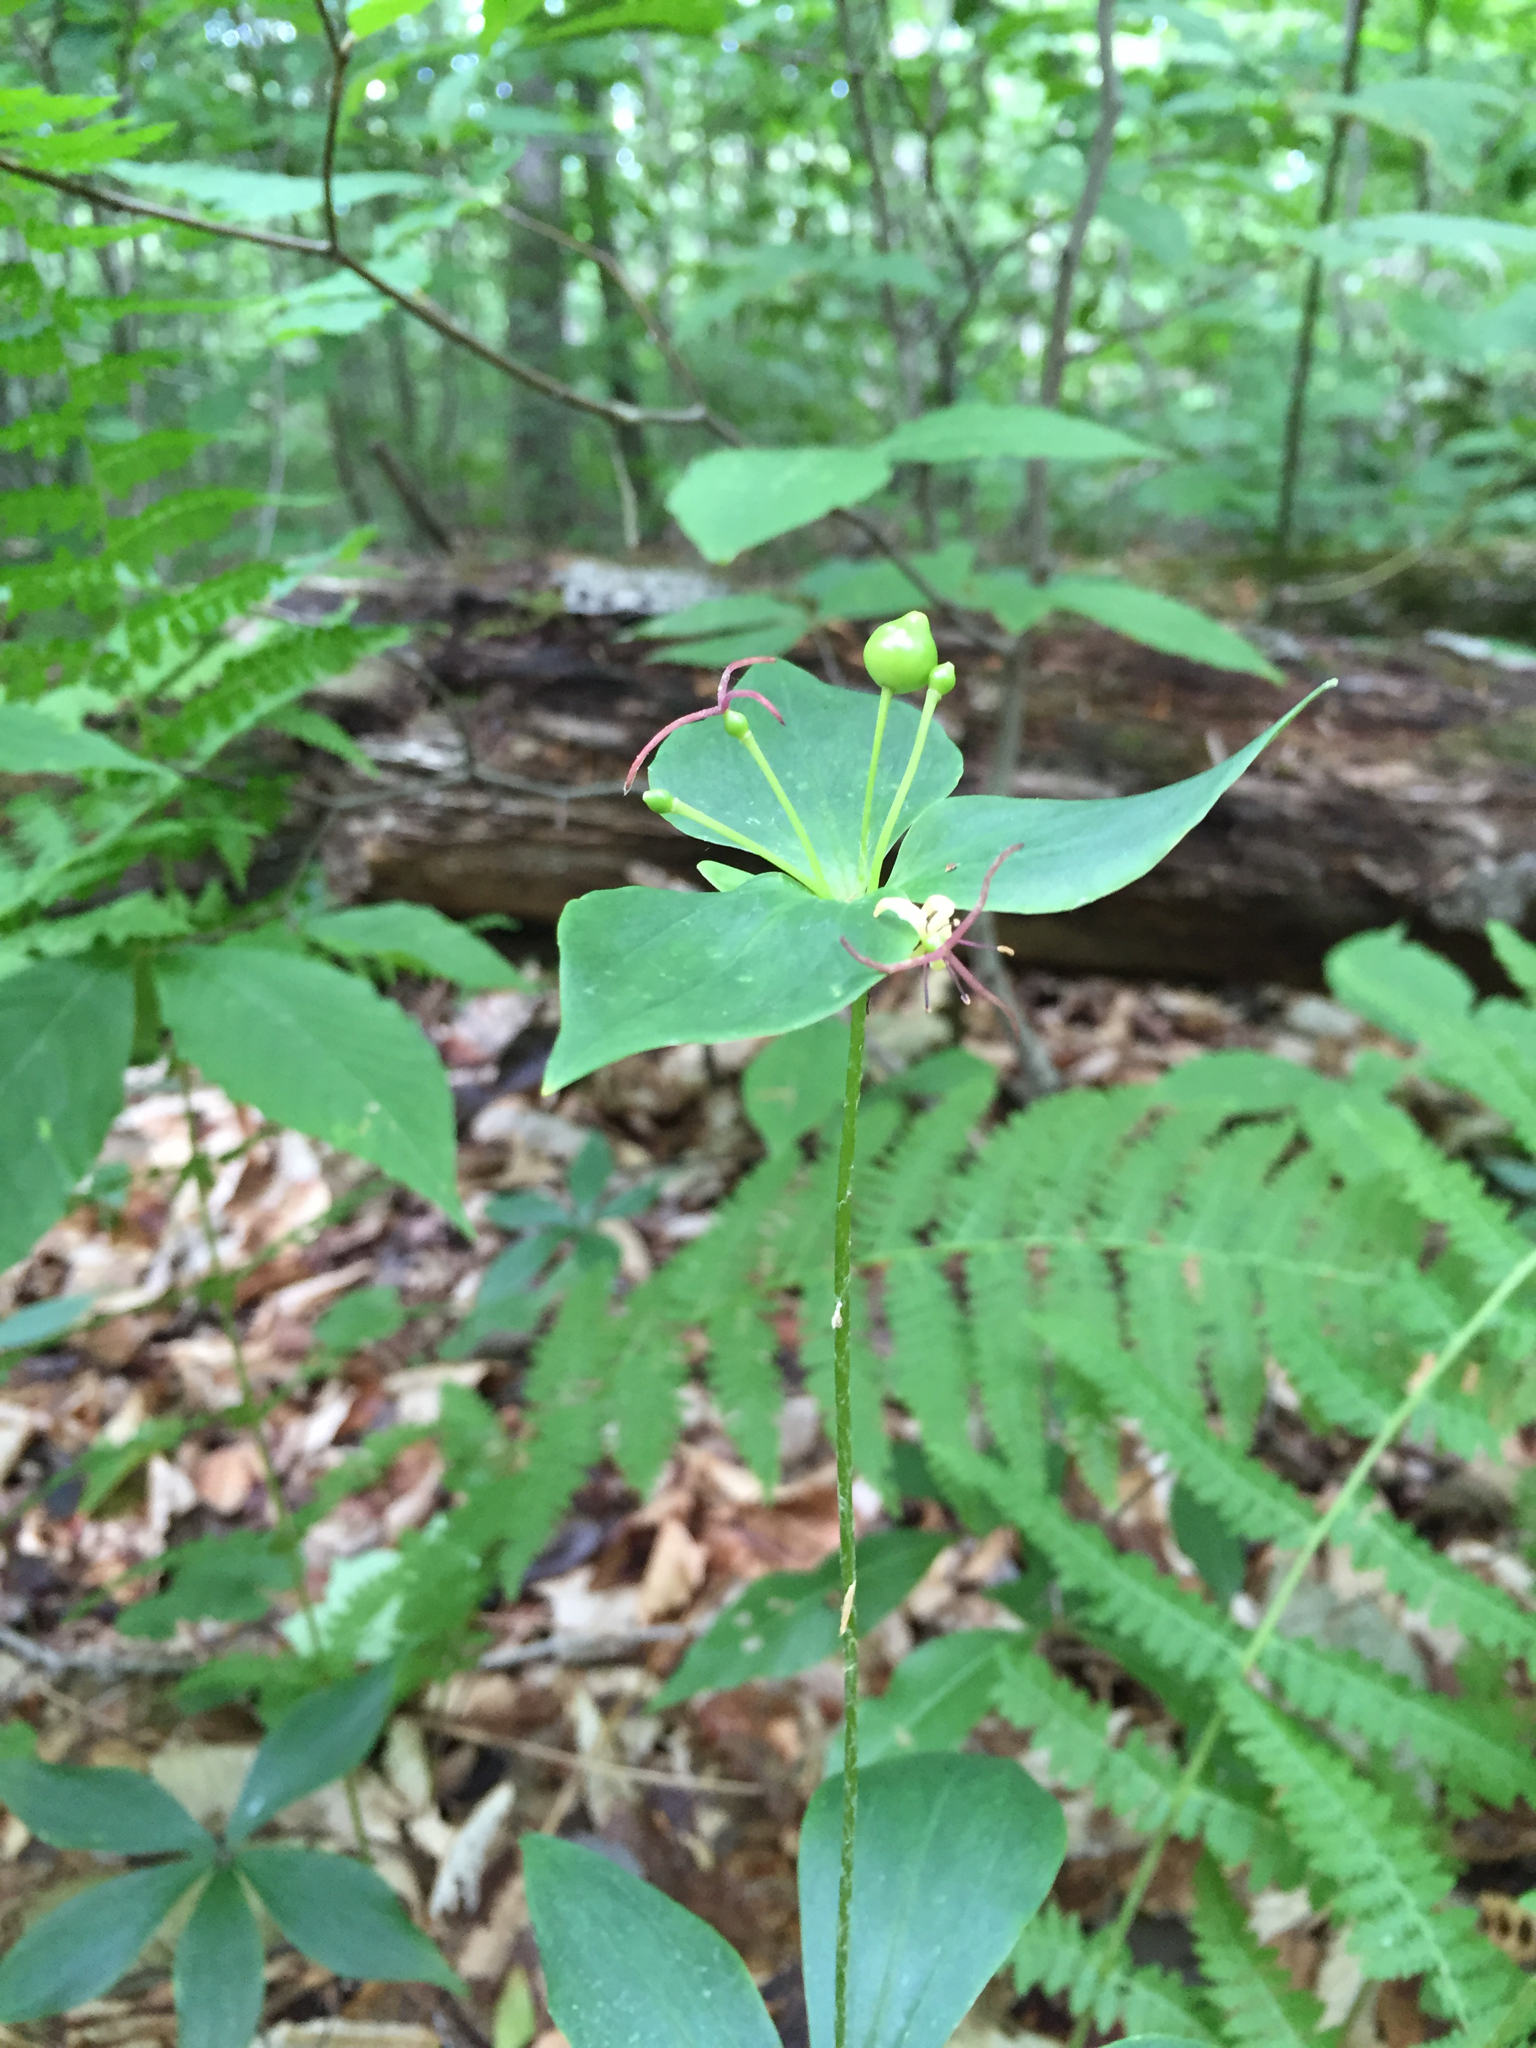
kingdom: Plantae
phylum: Tracheophyta
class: Liliopsida
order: Liliales
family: Liliaceae
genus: Medeola
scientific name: Medeola virginiana
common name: Indian cucumber-root
